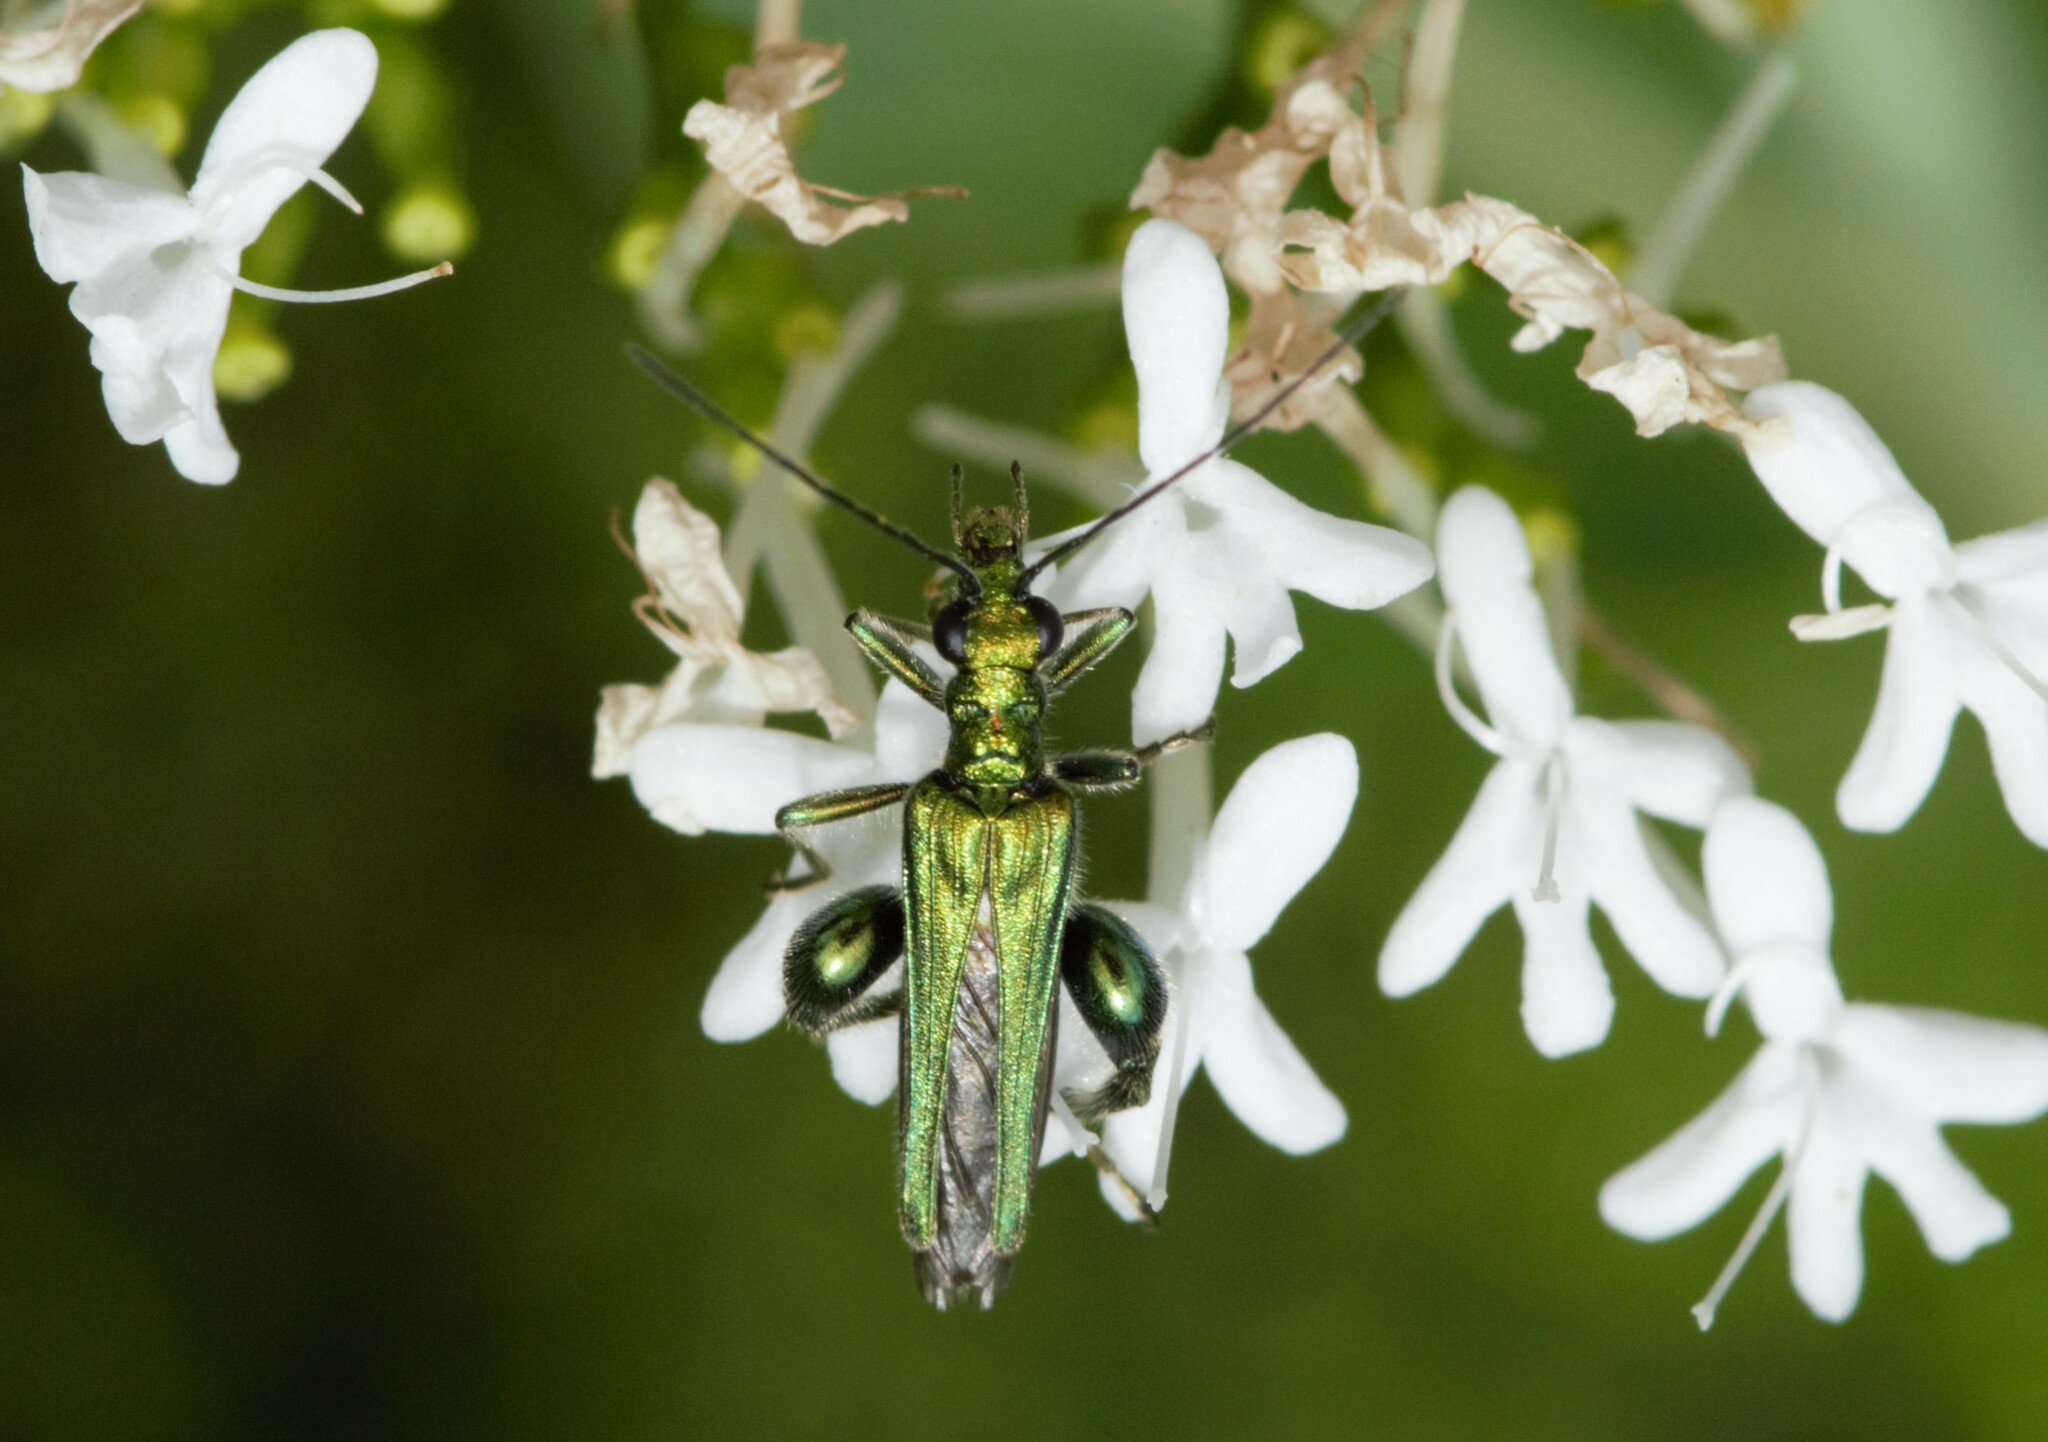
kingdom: Animalia
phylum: Arthropoda
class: Insecta
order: Coleoptera
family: Oedemeridae
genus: Oedemera
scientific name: Oedemera nobilis
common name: Swollen-thighed beetle
